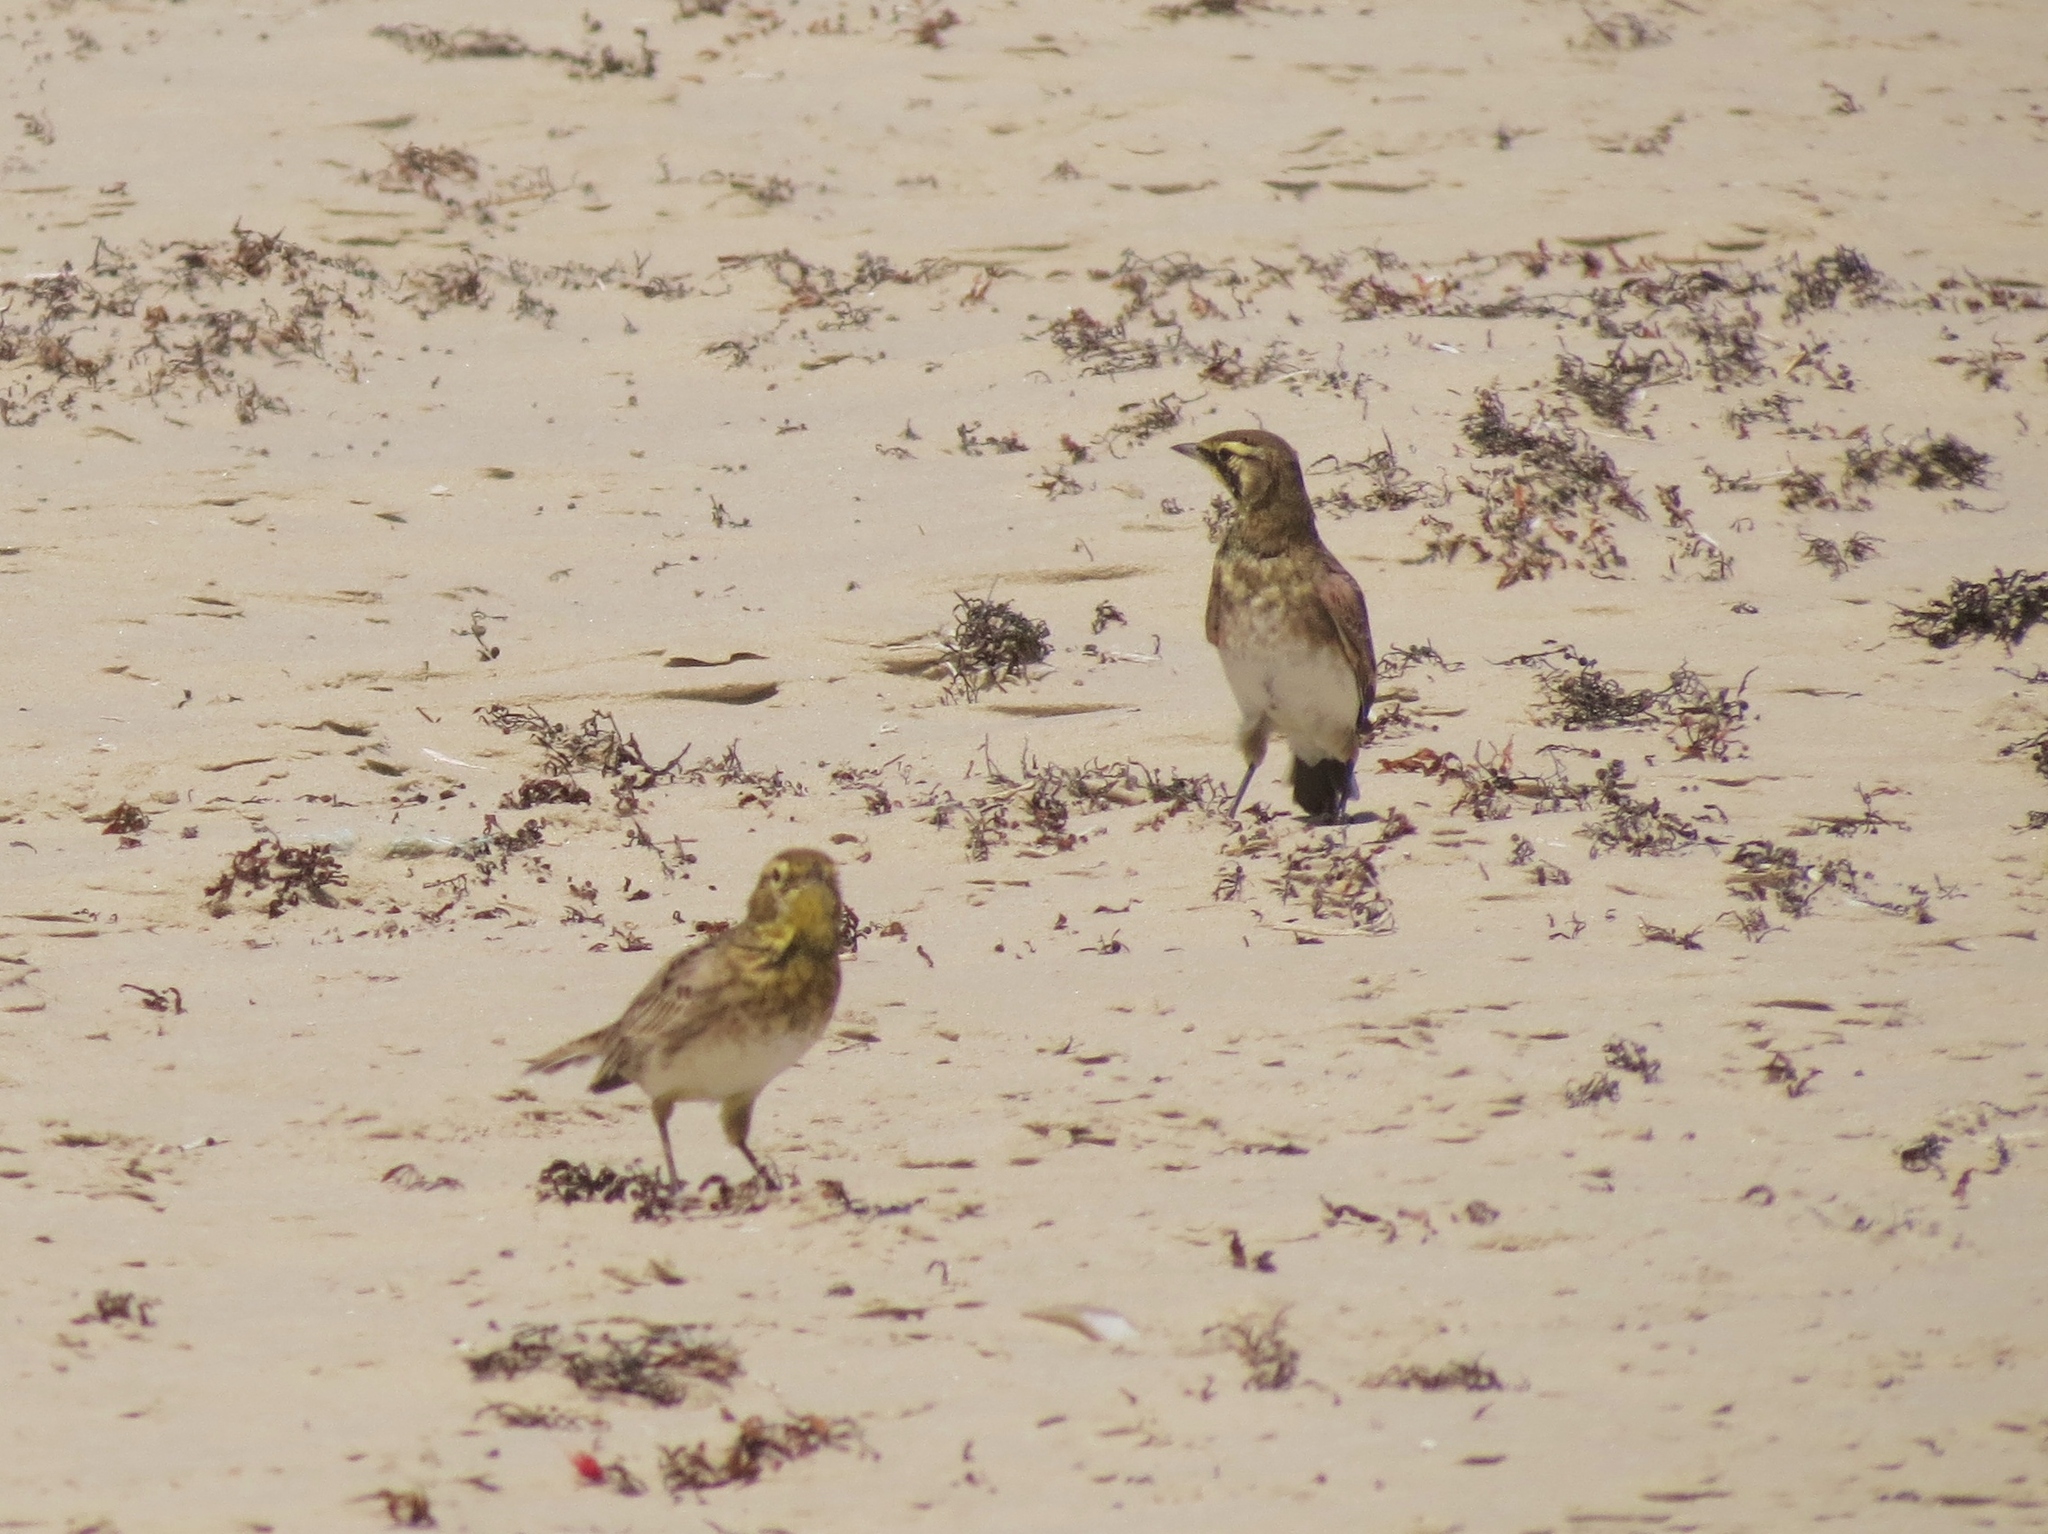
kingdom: Animalia
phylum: Chordata
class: Aves
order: Passeriformes
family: Alaudidae
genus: Eremophila
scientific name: Eremophila alpestris
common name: Horned lark
